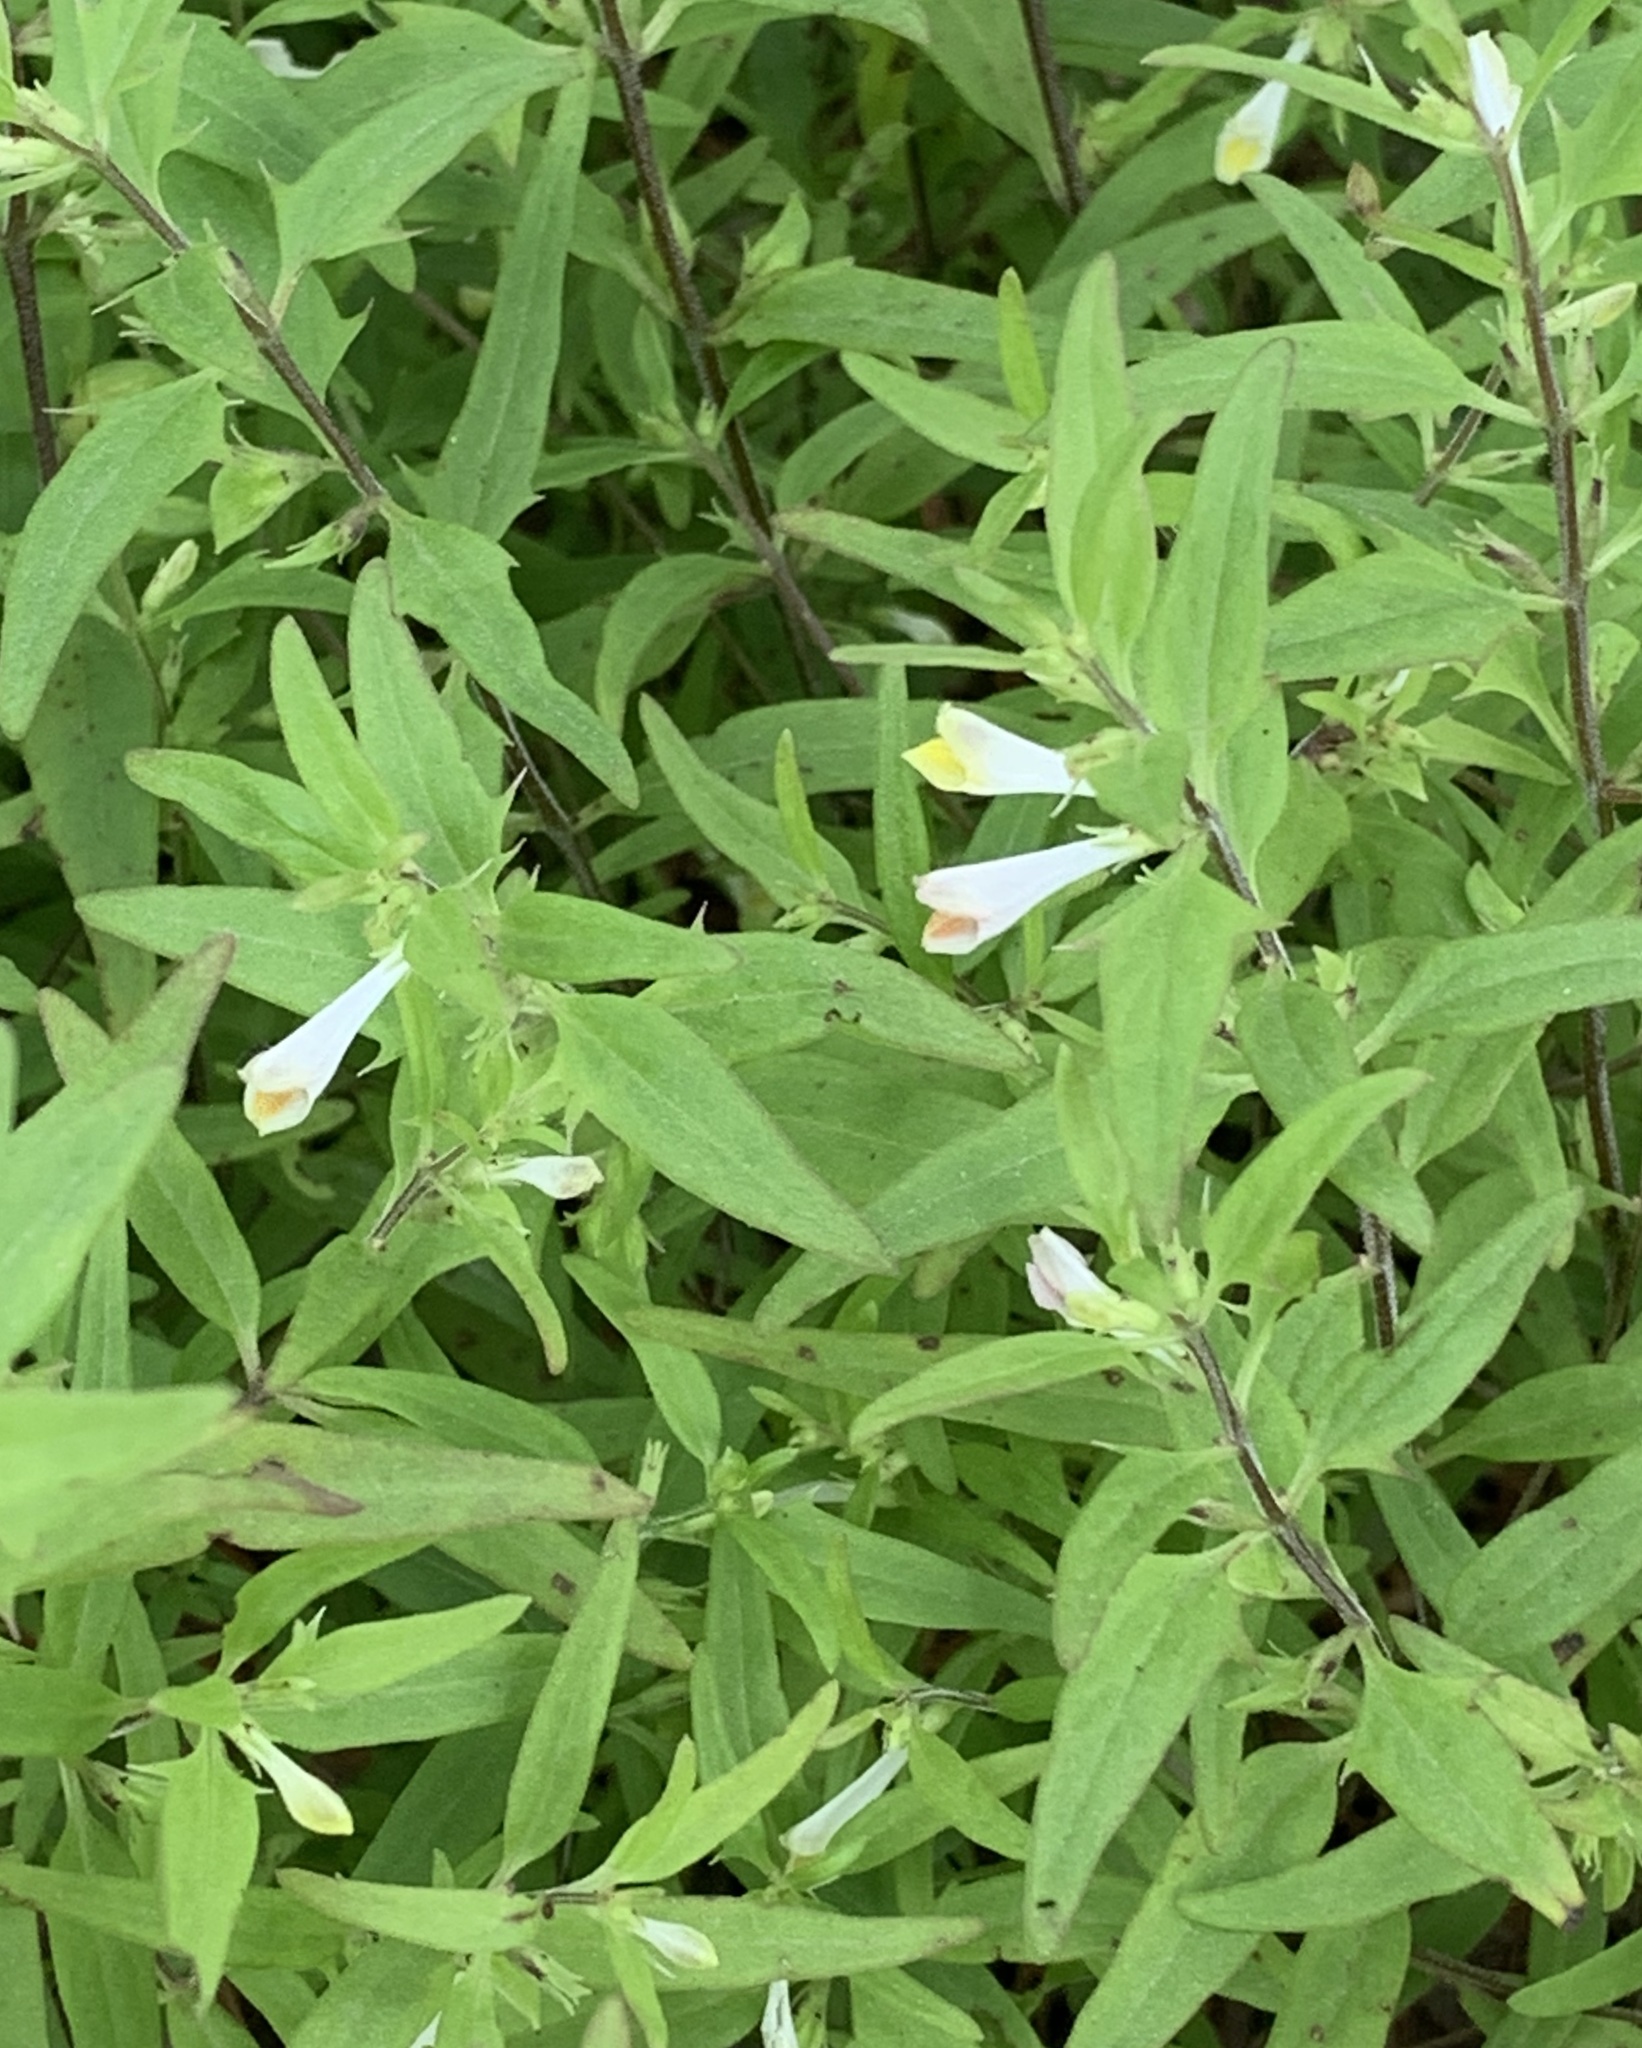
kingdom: Plantae
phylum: Tracheophyta
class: Magnoliopsida
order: Lamiales
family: Orobanchaceae
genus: Melampyrum
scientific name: Melampyrum lineare
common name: American cow-wheat
